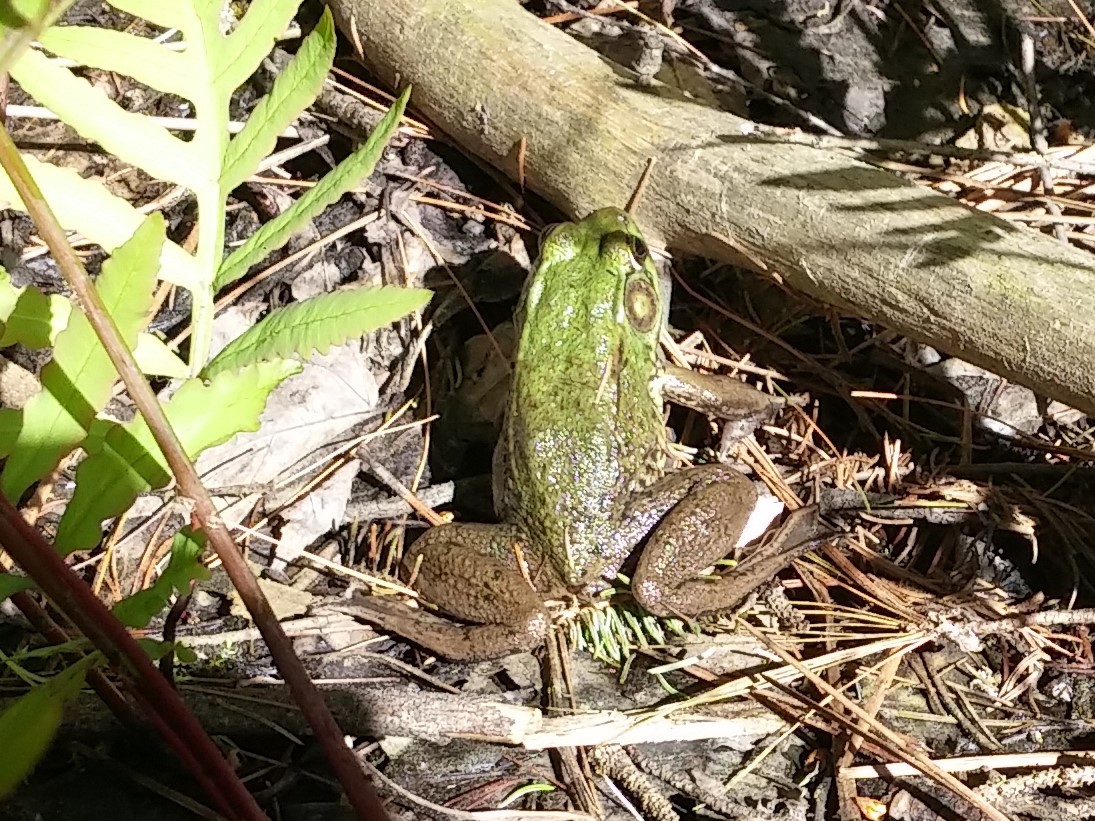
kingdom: Animalia
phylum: Chordata
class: Amphibia
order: Anura
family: Ranidae
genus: Lithobates
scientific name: Lithobates clamitans
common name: Green frog
